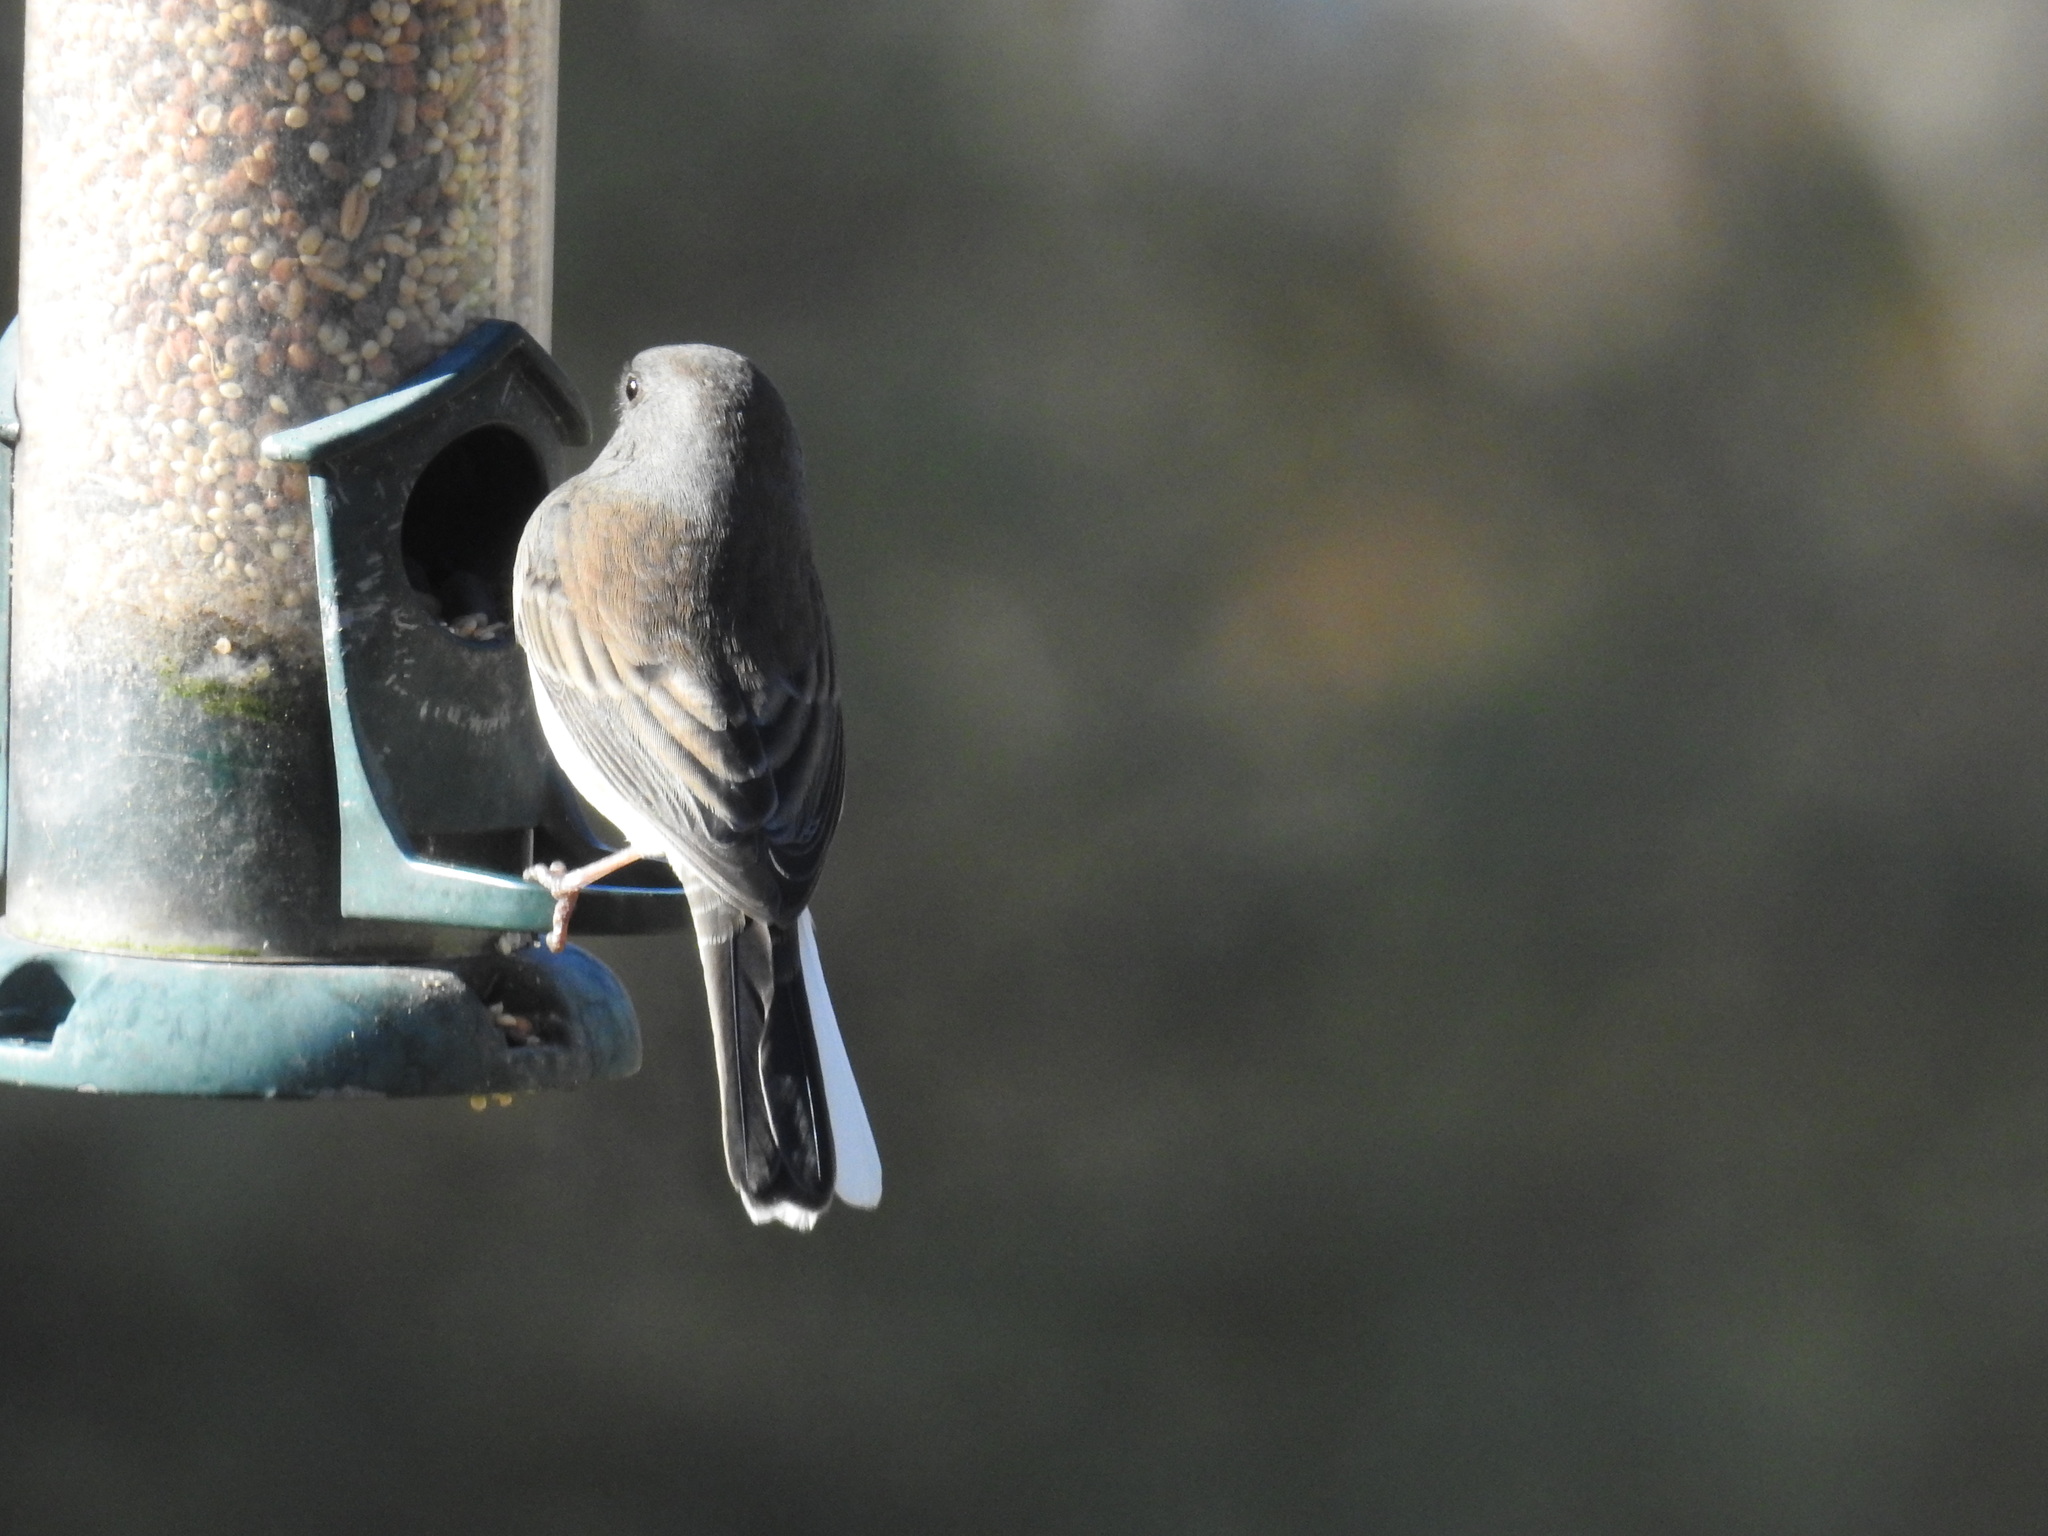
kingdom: Animalia
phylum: Chordata
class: Aves
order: Passeriformes
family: Passerellidae
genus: Junco
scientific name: Junco hyemalis
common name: Dark-eyed junco
